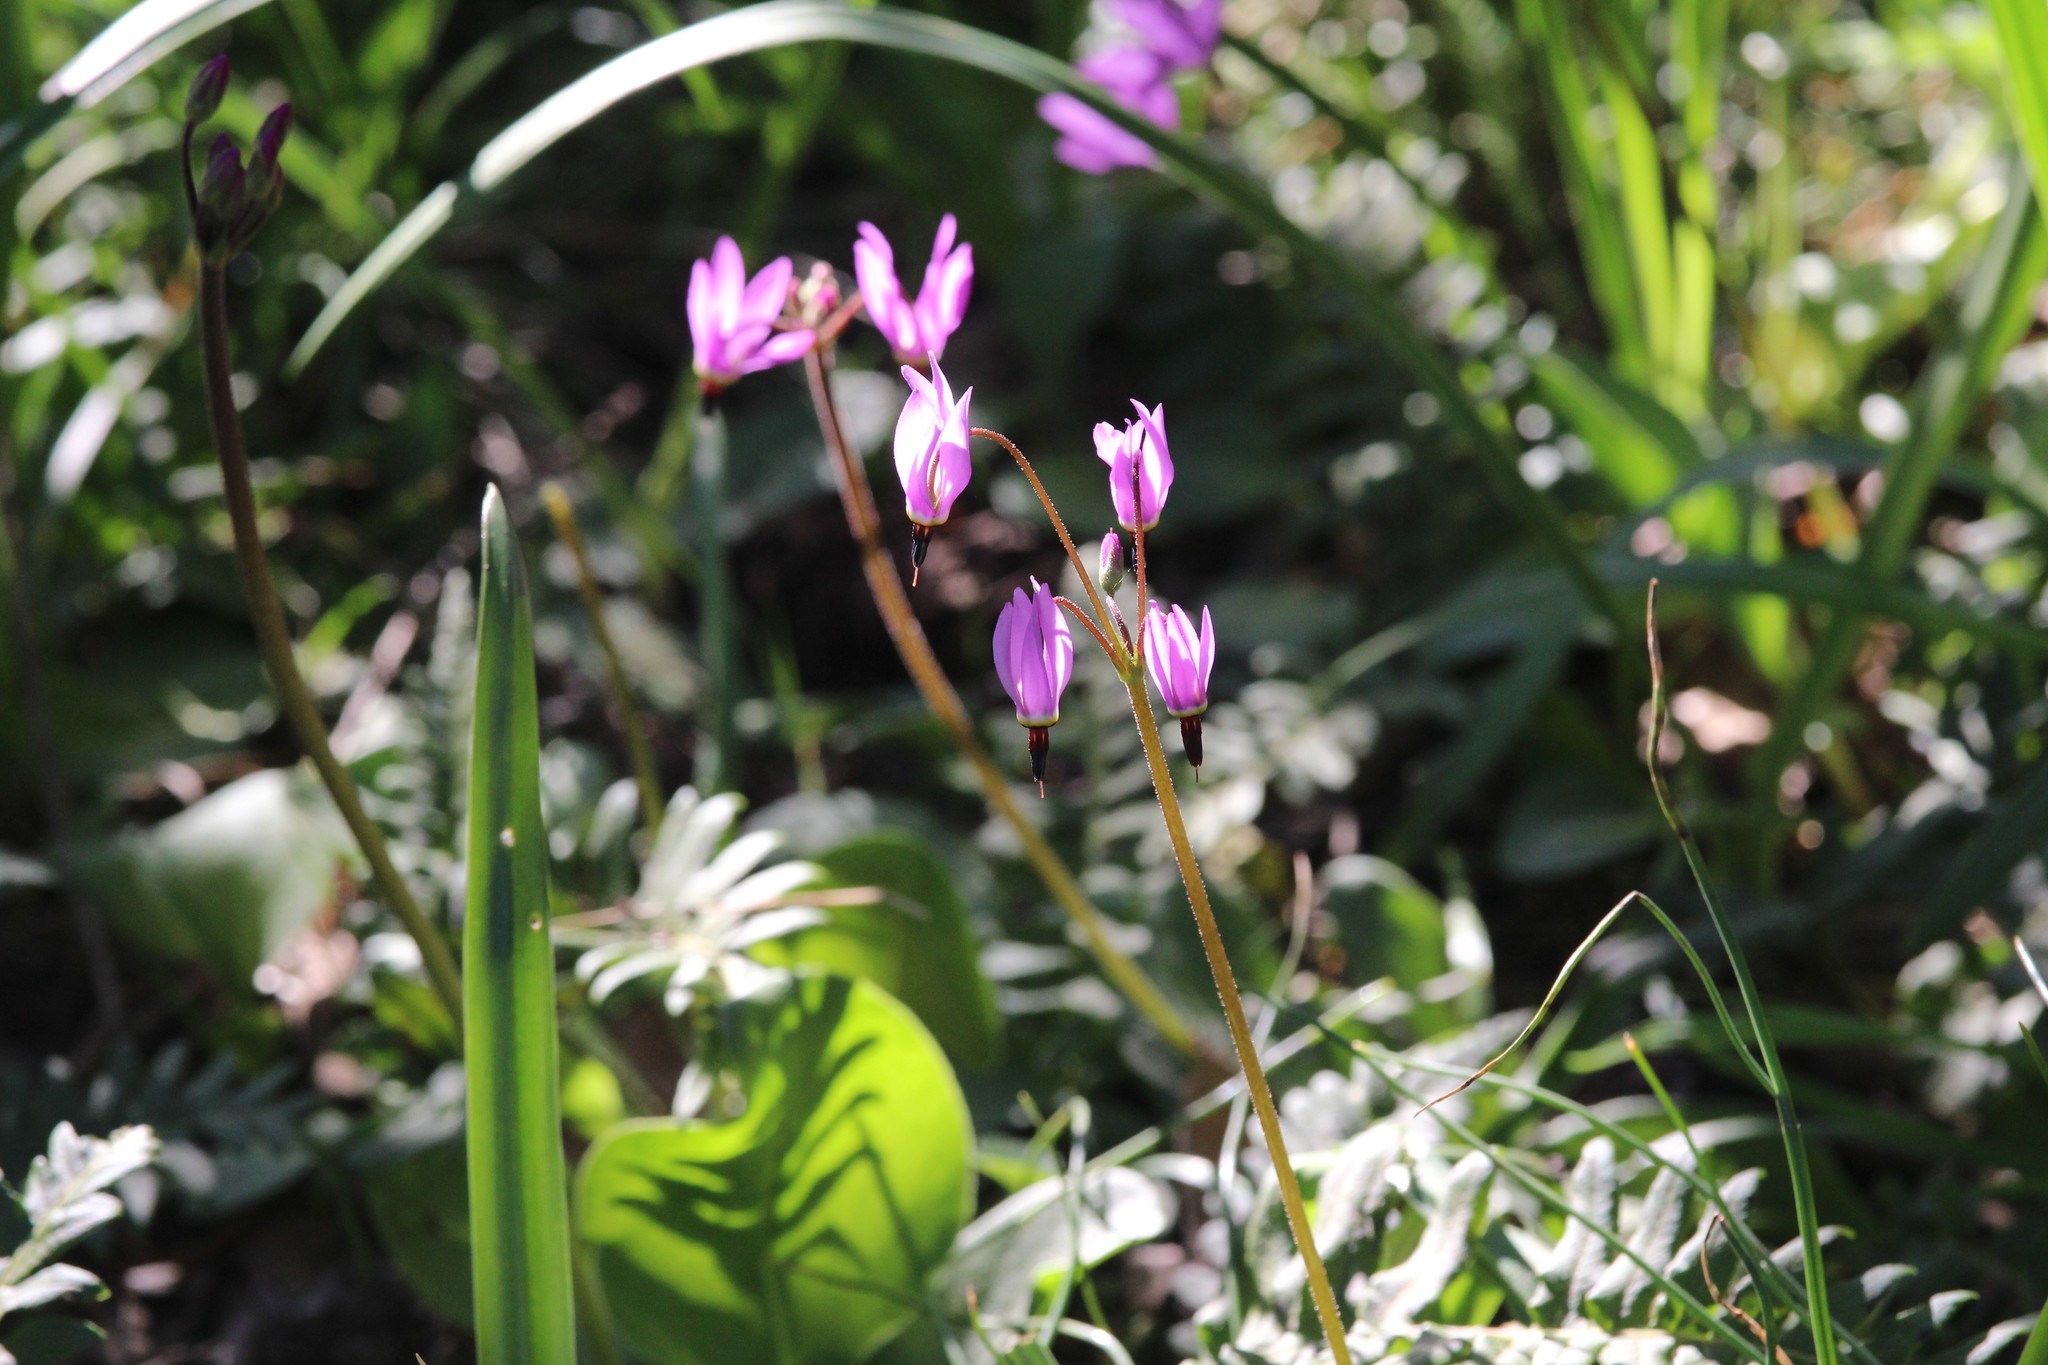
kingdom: Plantae
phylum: Tracheophyta
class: Magnoliopsida
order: Ericales
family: Primulaceae
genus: Dodecatheon
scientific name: Dodecatheon hendersonii
